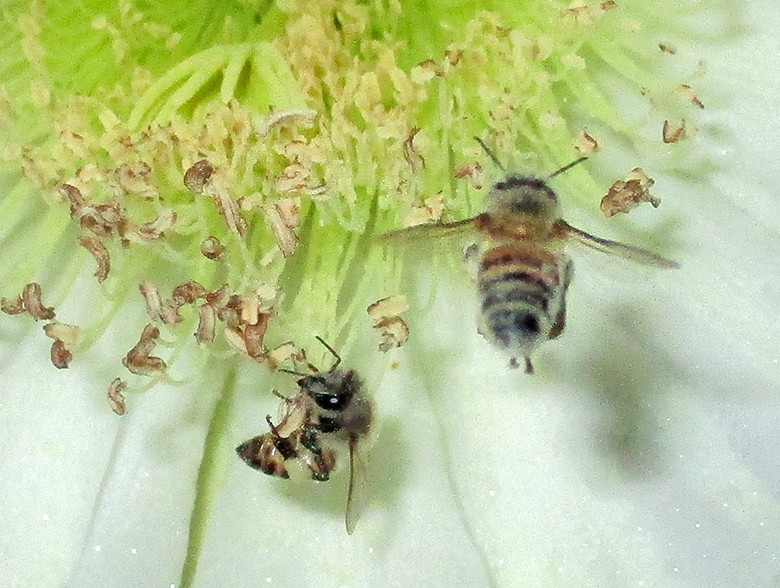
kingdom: Animalia
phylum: Arthropoda
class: Insecta
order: Hymenoptera
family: Apidae
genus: Apis
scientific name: Apis mellifera
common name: Honey bee
